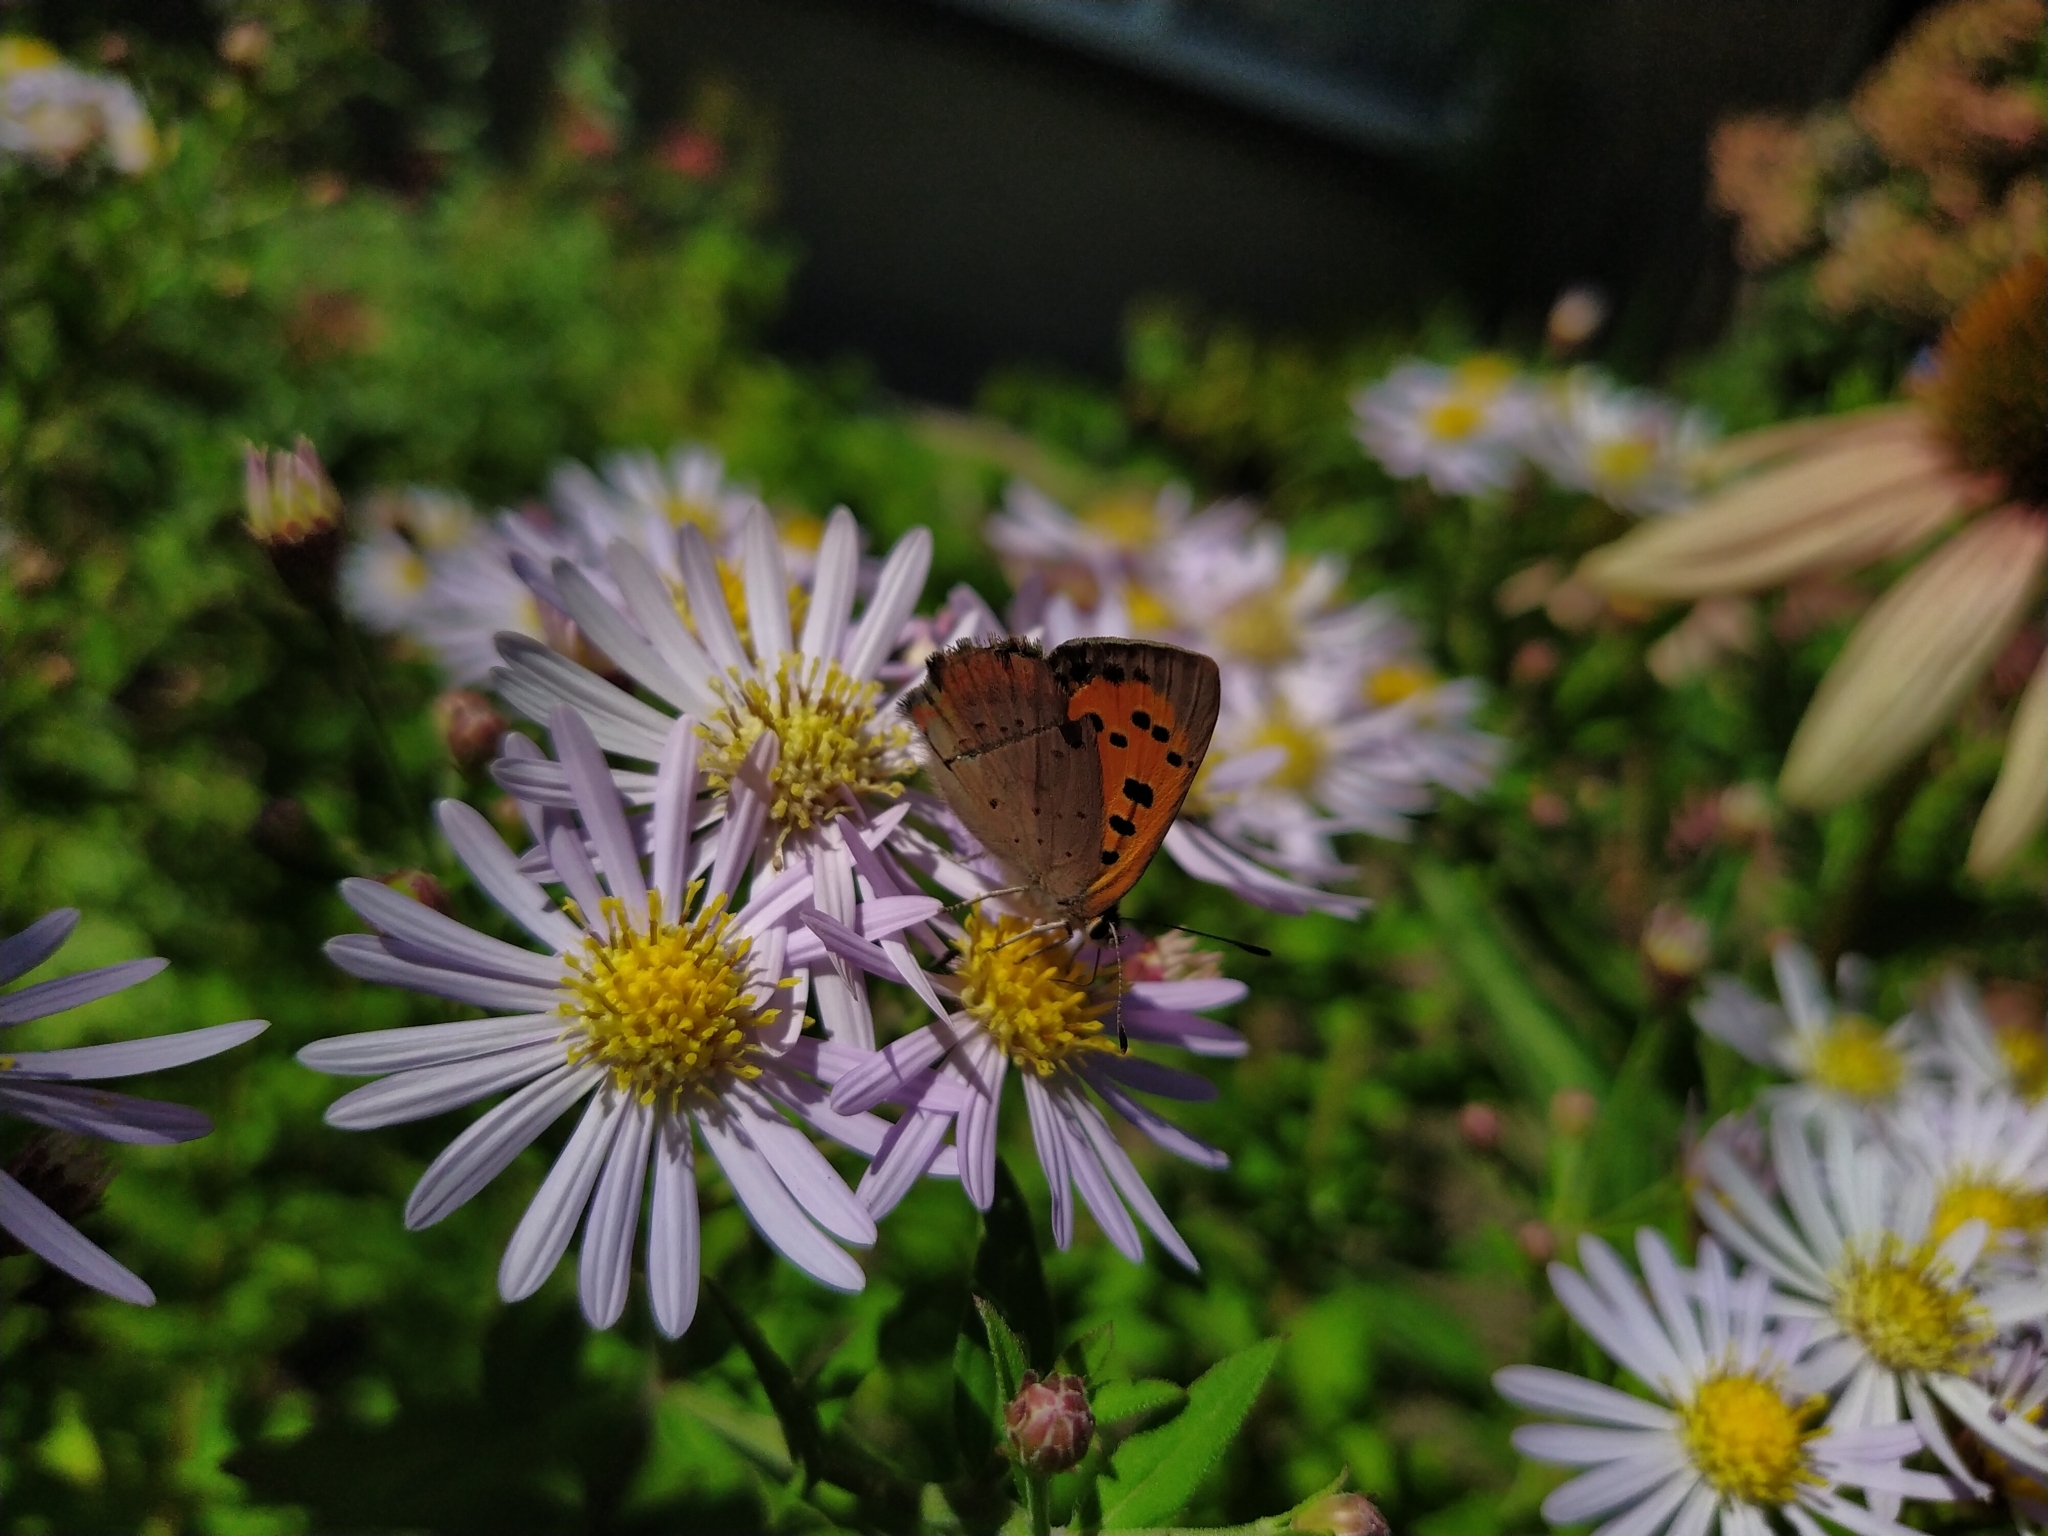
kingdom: Animalia
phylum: Arthropoda
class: Insecta
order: Lepidoptera
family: Lycaenidae
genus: Lycaena
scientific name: Lycaena phlaeas
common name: Small copper
